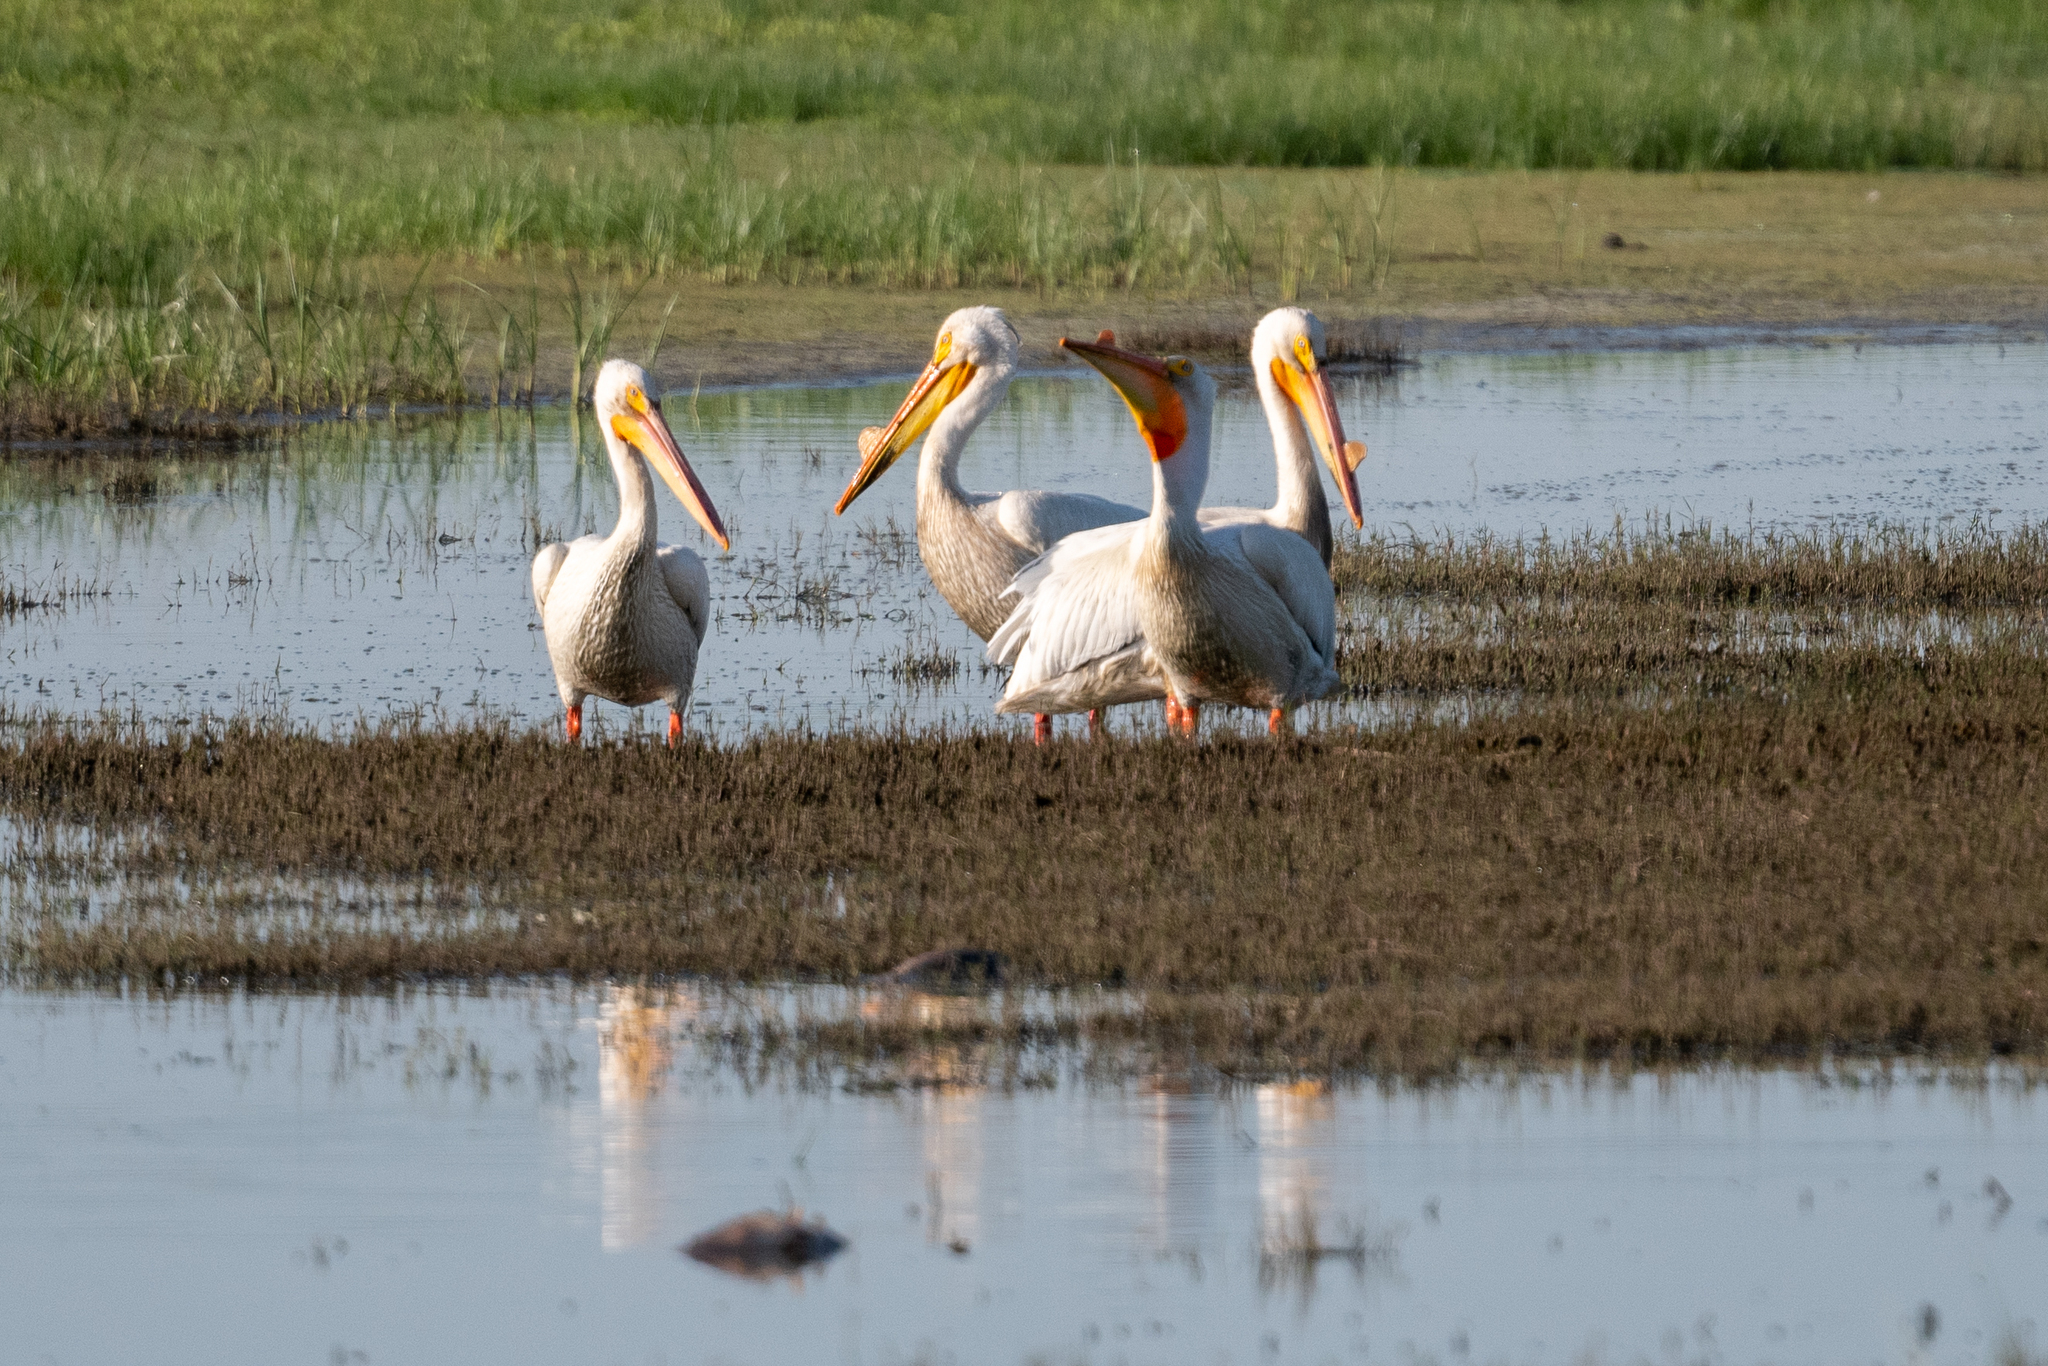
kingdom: Animalia
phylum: Chordata
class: Aves
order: Pelecaniformes
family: Pelecanidae
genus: Pelecanus
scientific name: Pelecanus erythrorhynchos
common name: American white pelican
